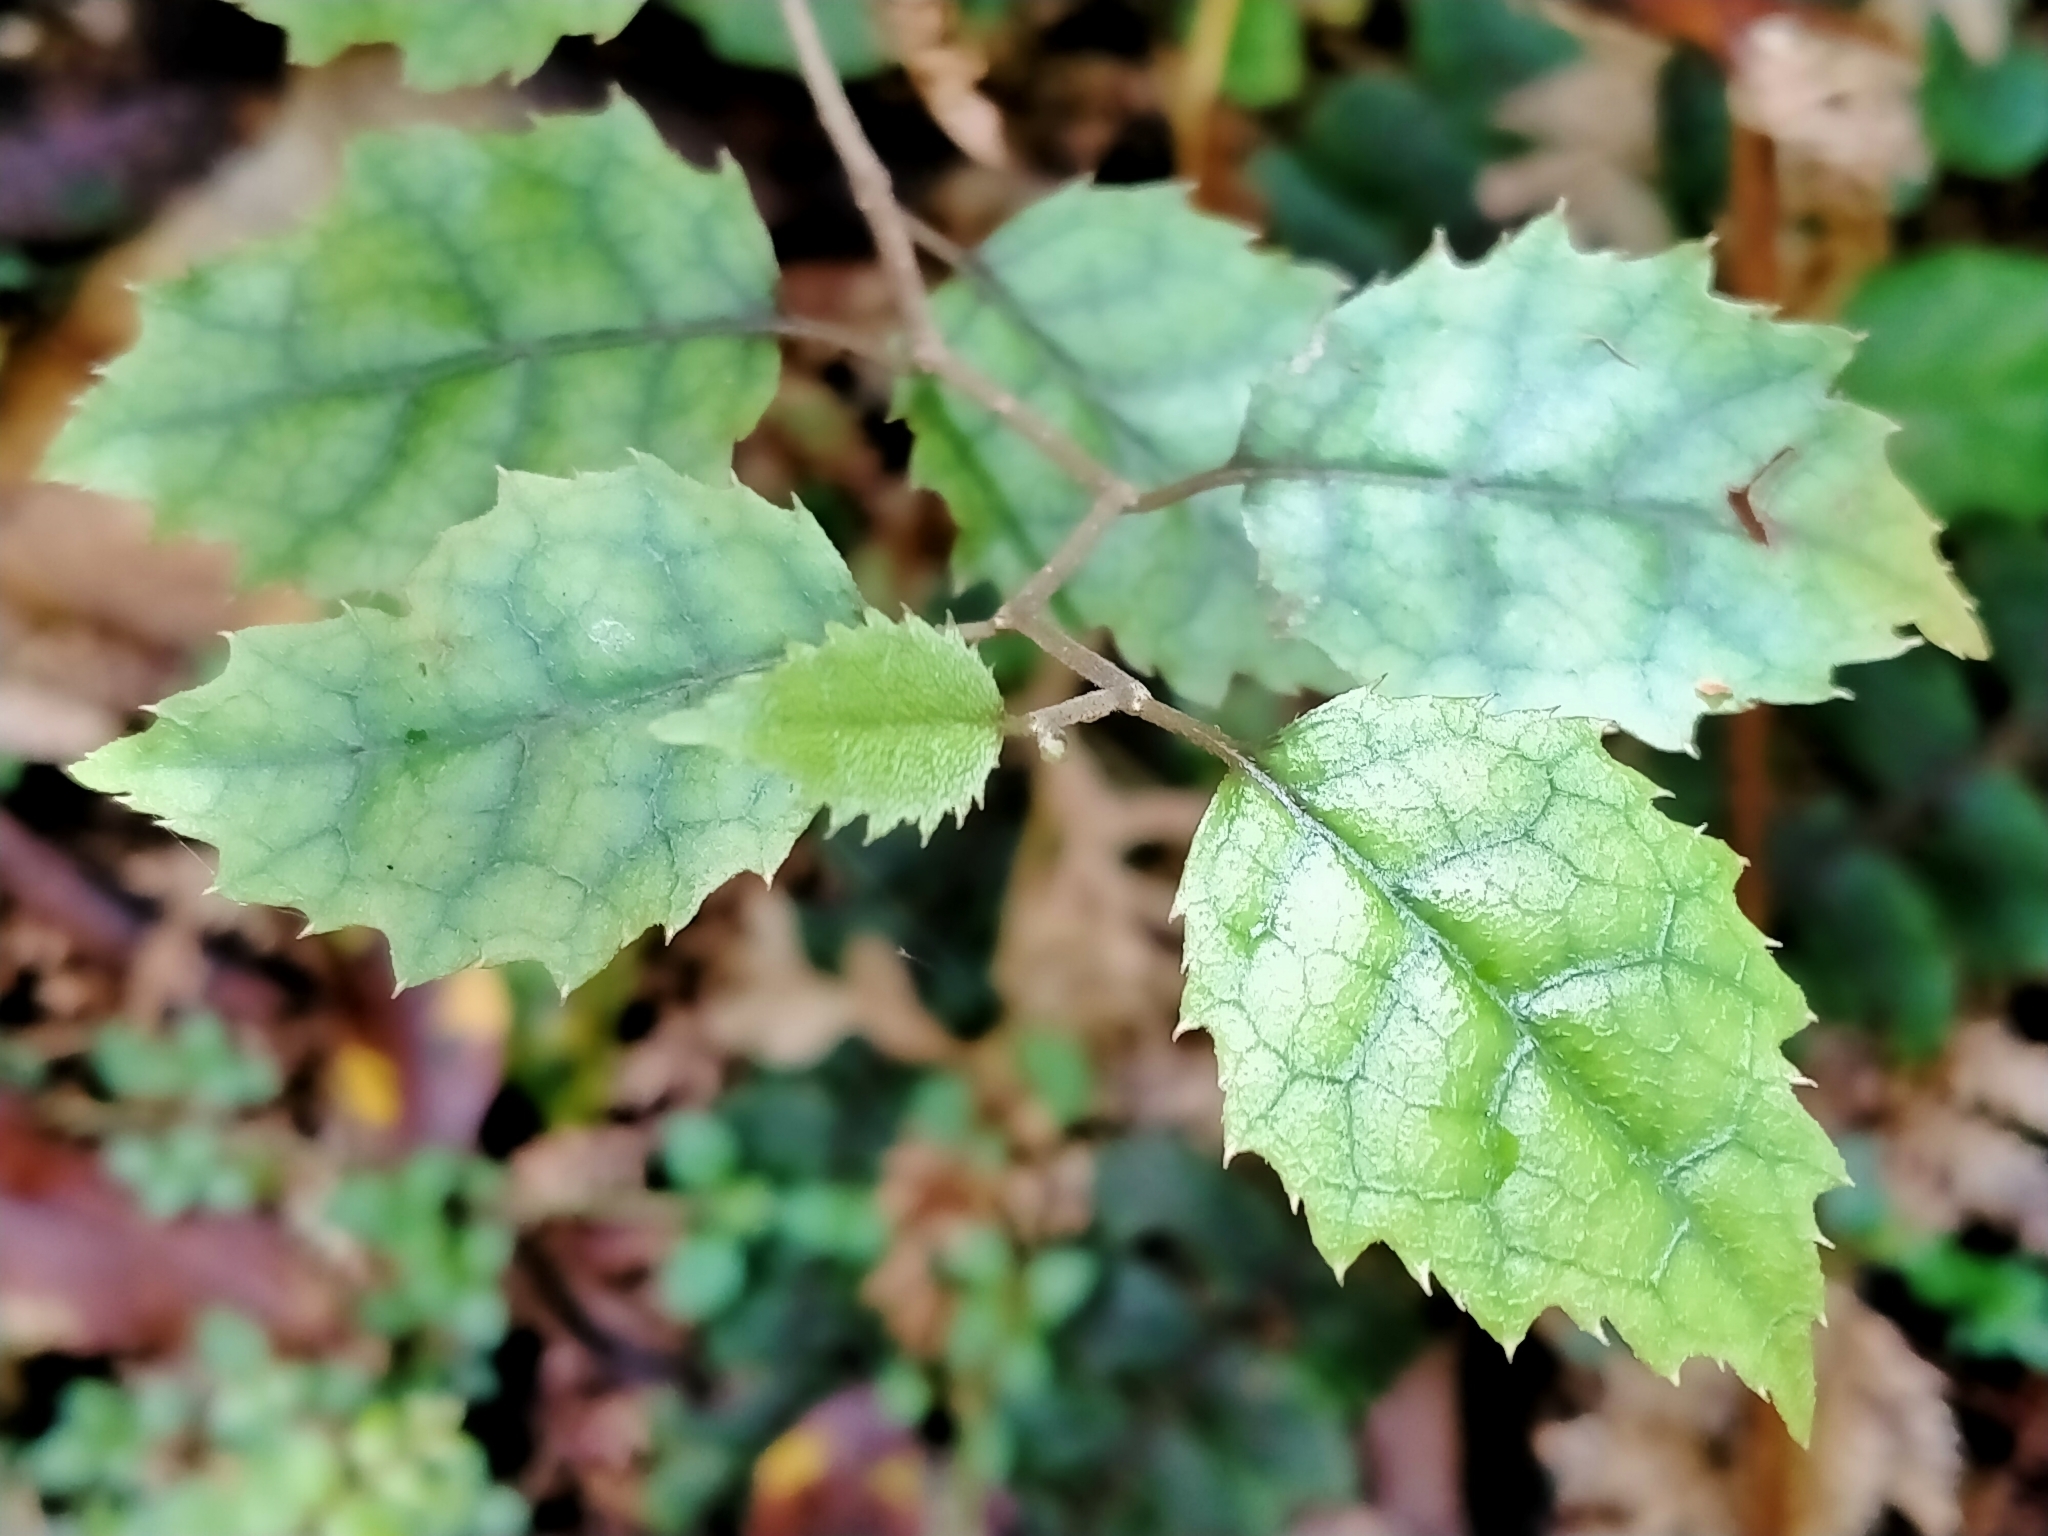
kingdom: Plantae
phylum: Tracheophyta
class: Magnoliopsida
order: Asterales
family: Rousseaceae
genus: Carpodetus
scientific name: Carpodetus serratus
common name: White mapau
